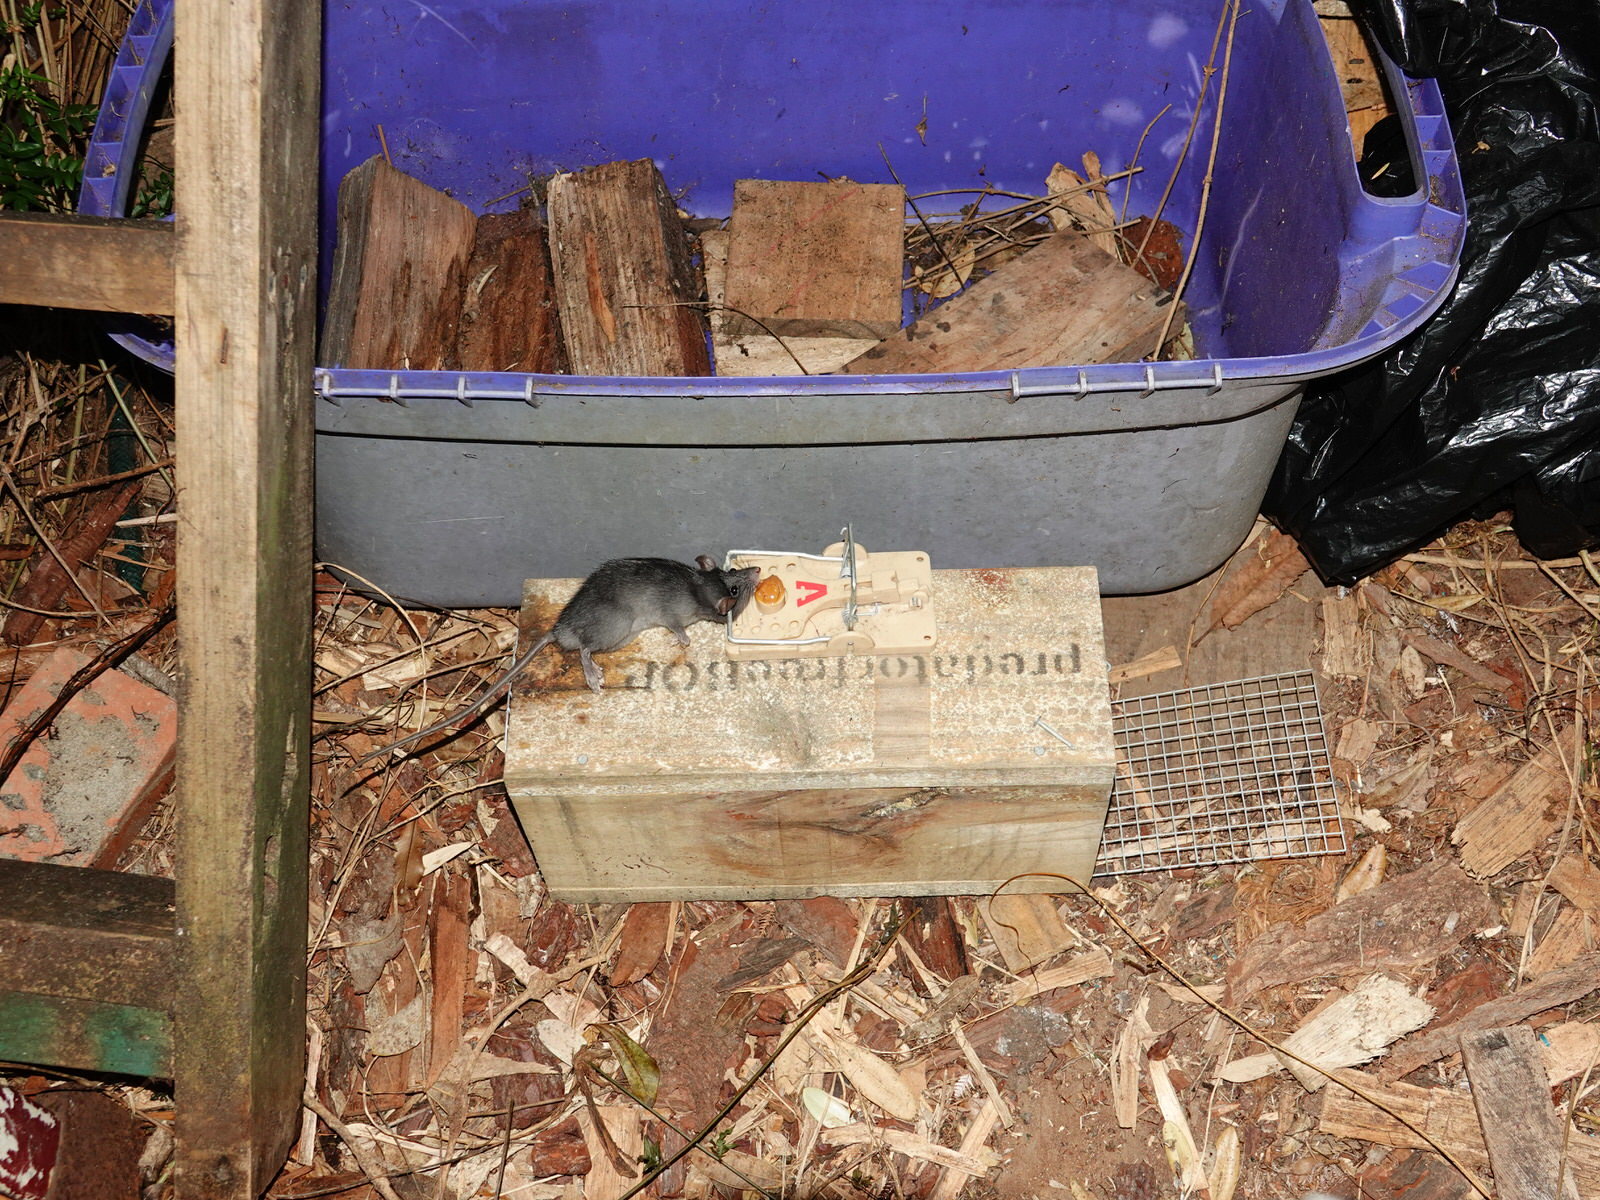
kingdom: Animalia
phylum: Chordata
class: Mammalia
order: Rodentia
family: Muridae
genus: Rattus
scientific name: Rattus rattus
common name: Black rat
